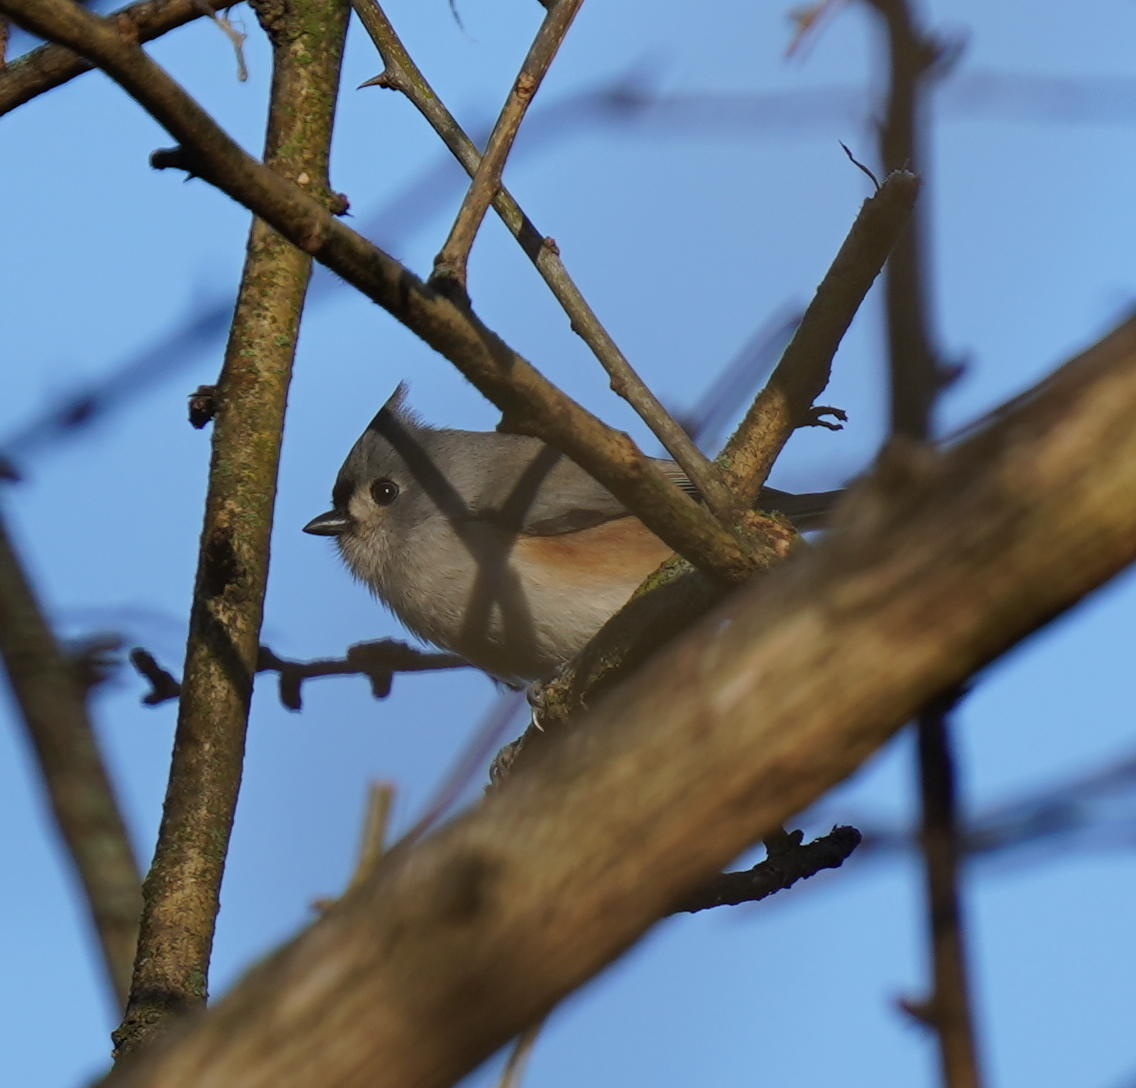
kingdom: Animalia
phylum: Chordata
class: Aves
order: Passeriformes
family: Paridae
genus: Baeolophus
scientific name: Baeolophus bicolor
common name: Tufted titmouse
